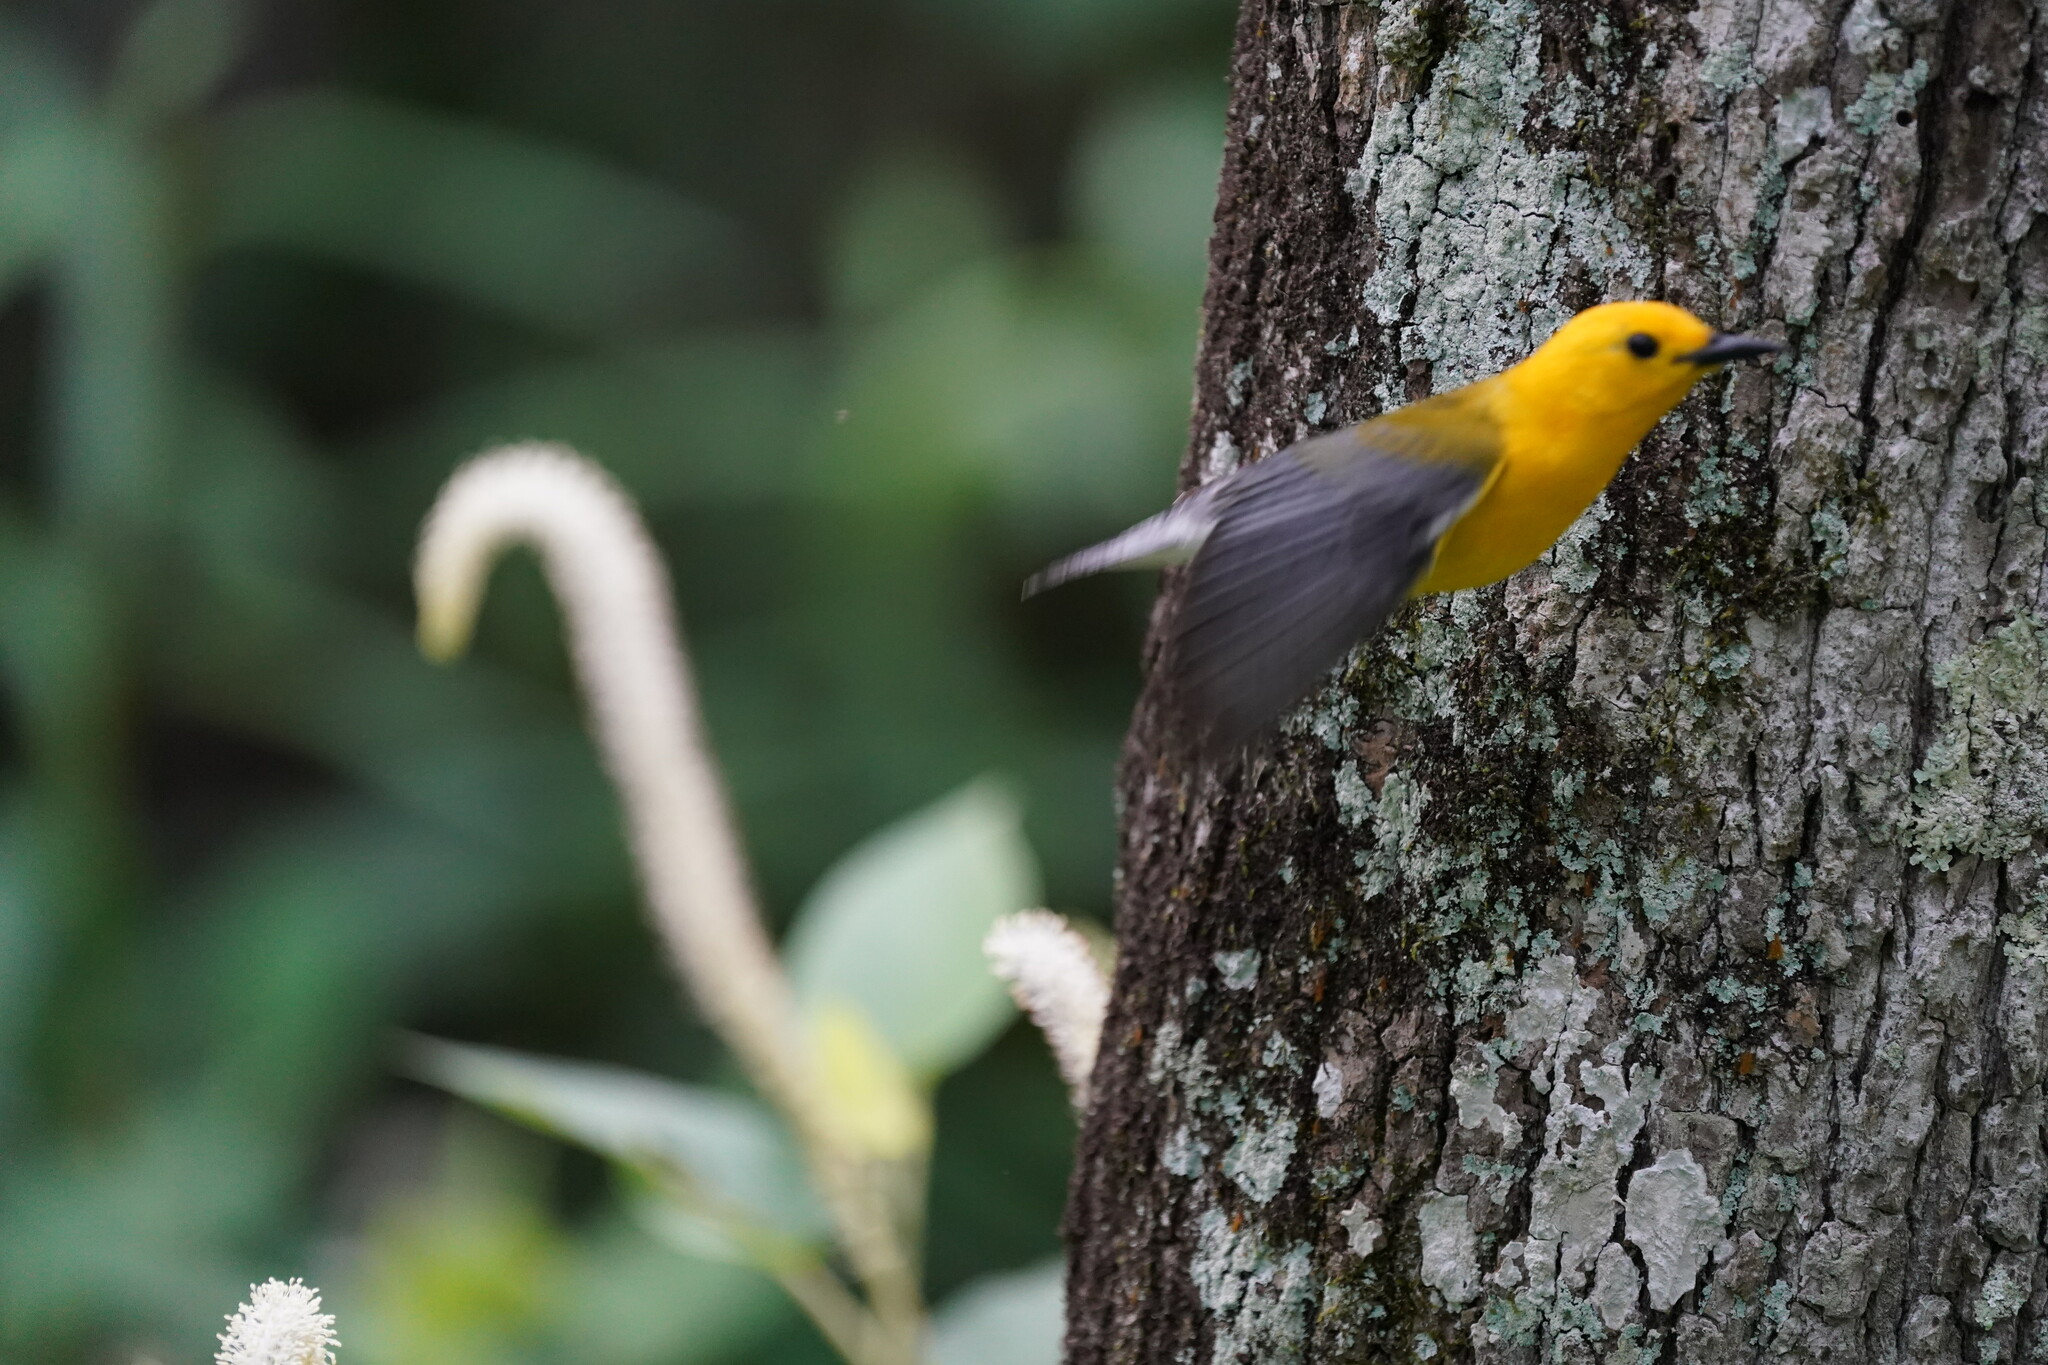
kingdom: Animalia
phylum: Chordata
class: Aves
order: Passeriformes
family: Parulidae
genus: Protonotaria
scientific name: Protonotaria citrea
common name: Prothonotary warbler
